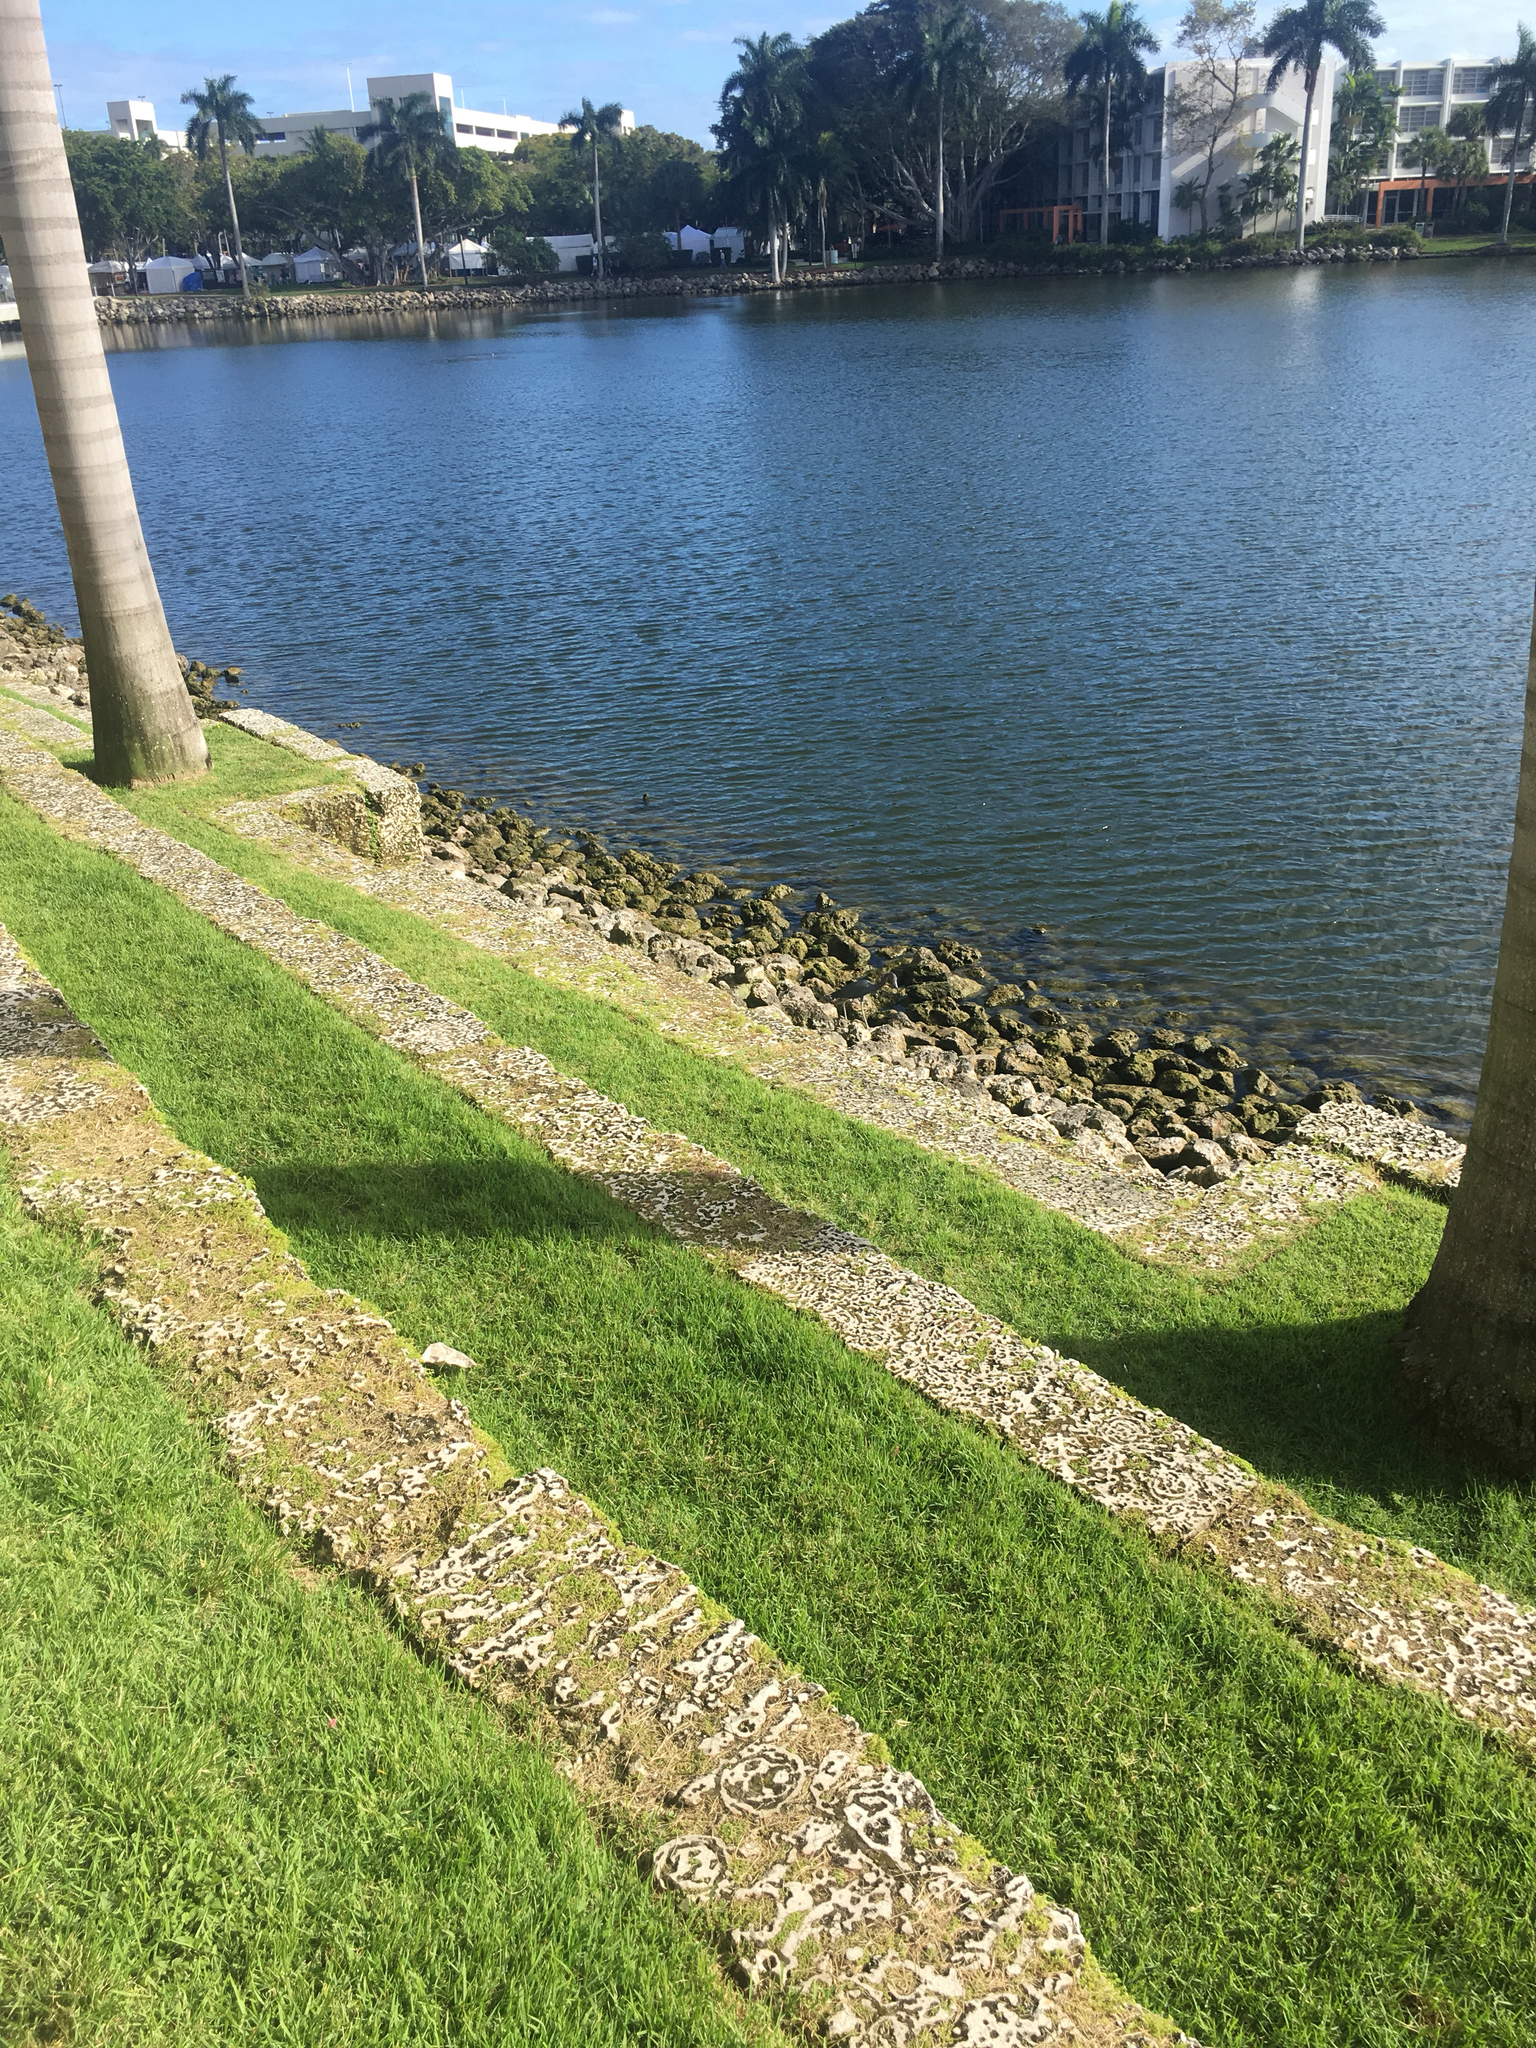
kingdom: Animalia
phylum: Chordata
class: Aves
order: Pelecaniformes
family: Ardeidae
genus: Egretta
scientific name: Egretta caerulea
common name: Little blue heron
